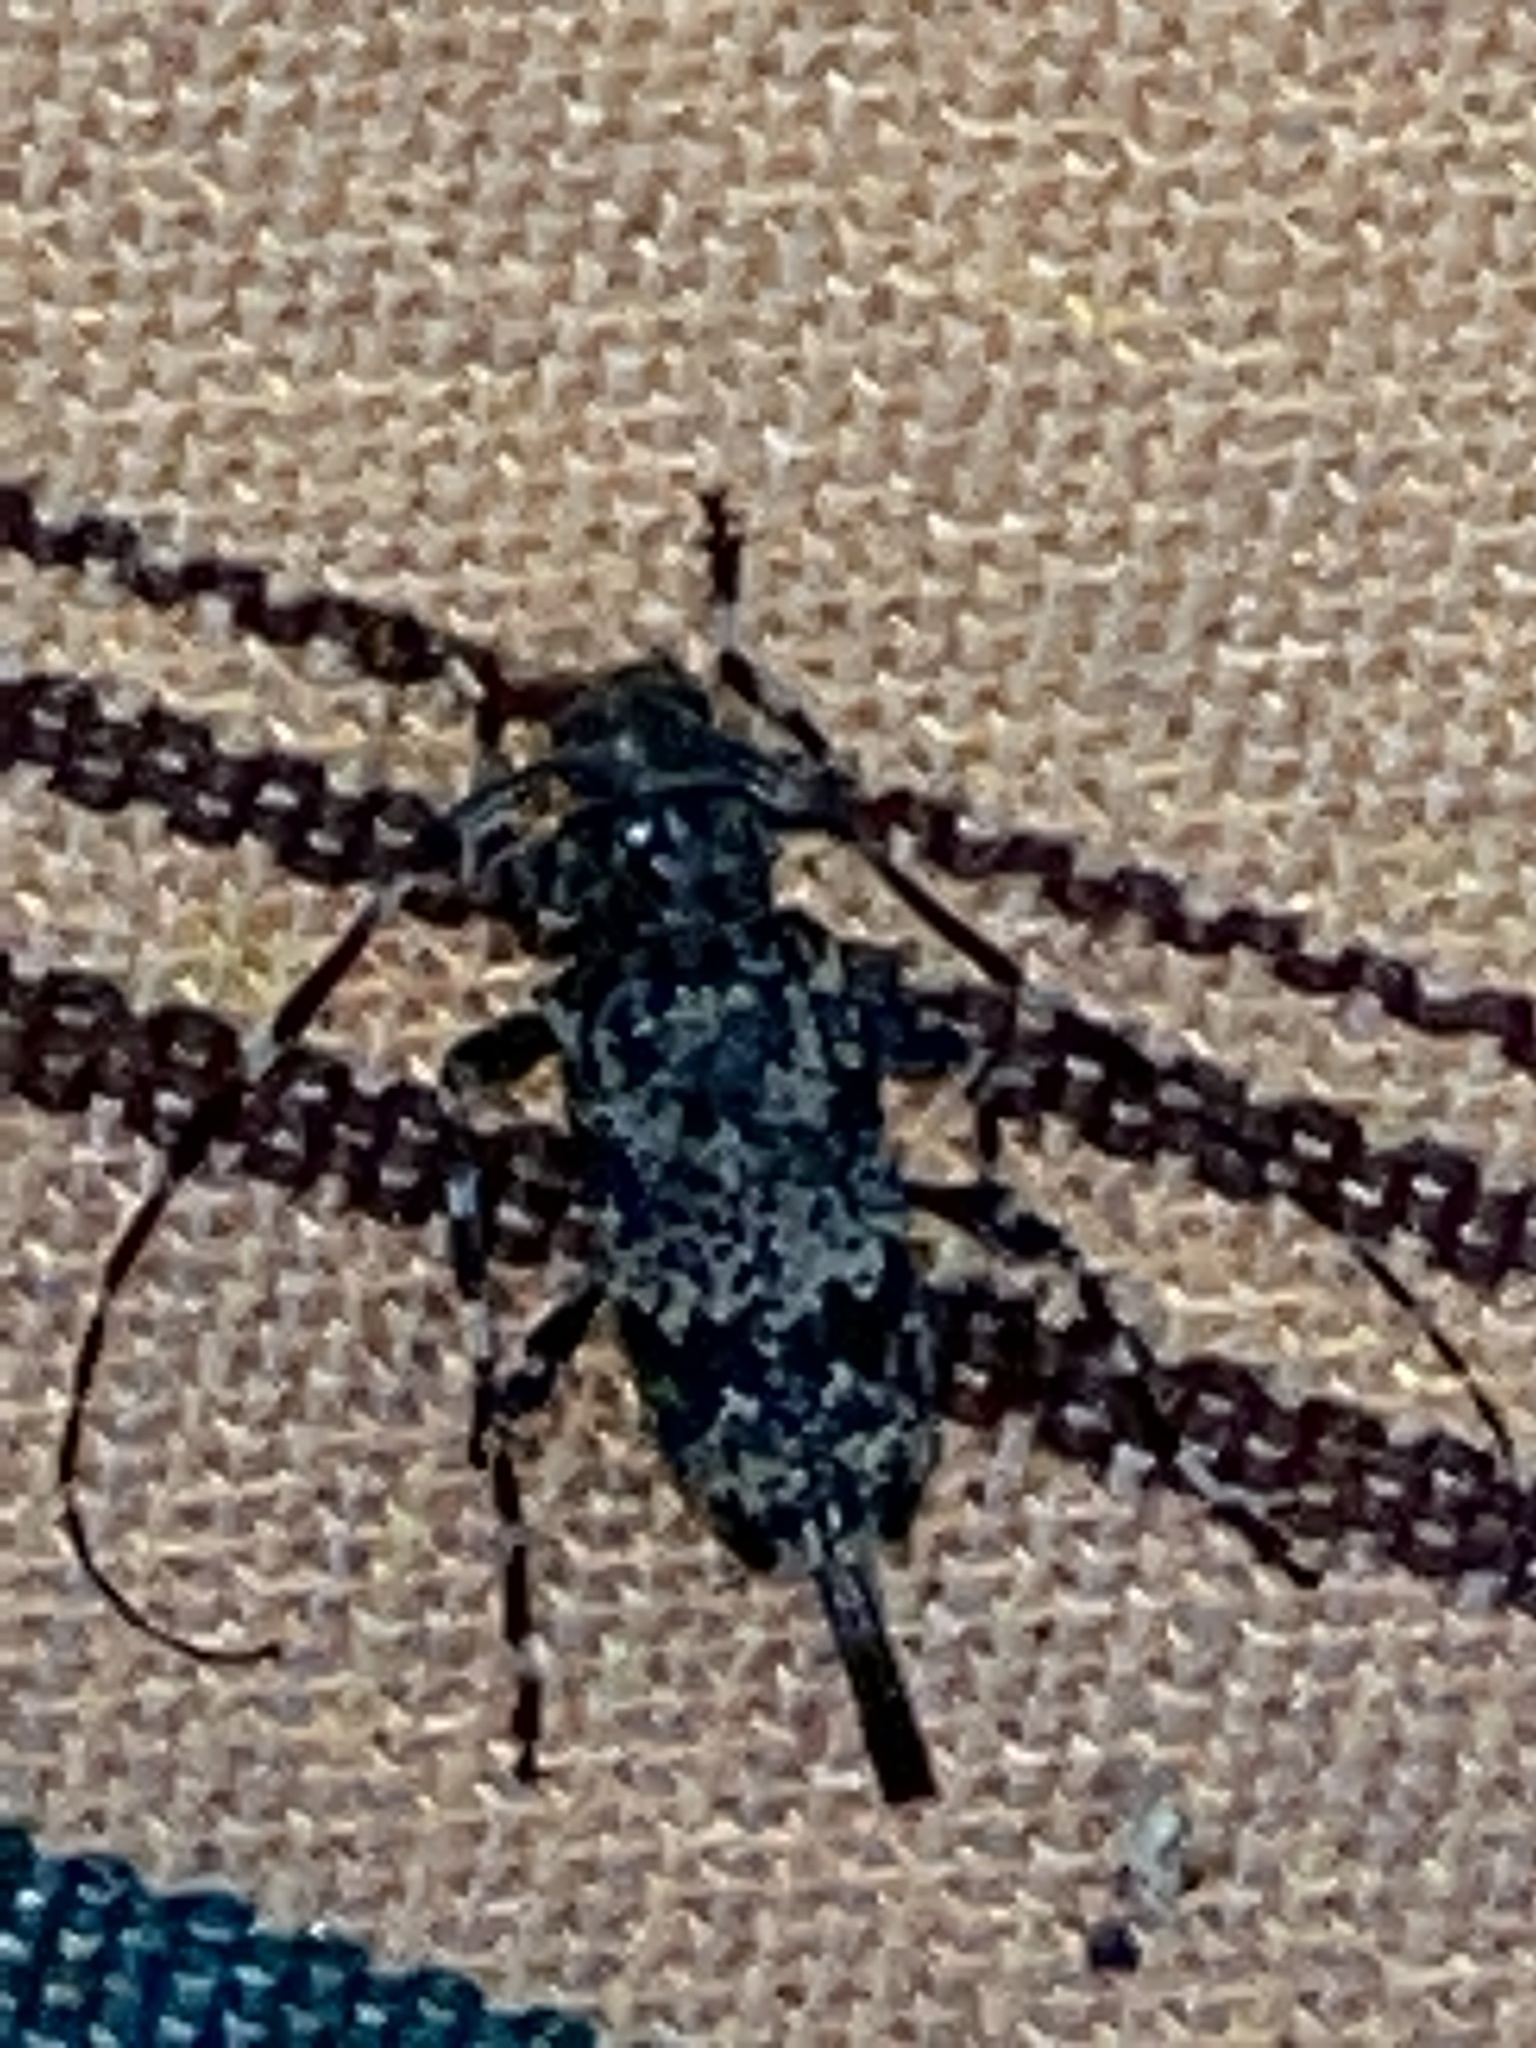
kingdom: Animalia
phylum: Arthropoda
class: Insecta
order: Coleoptera
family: Cerambycidae
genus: Graphisurus
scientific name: Graphisurus fasciatus
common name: Banded graphisurus
